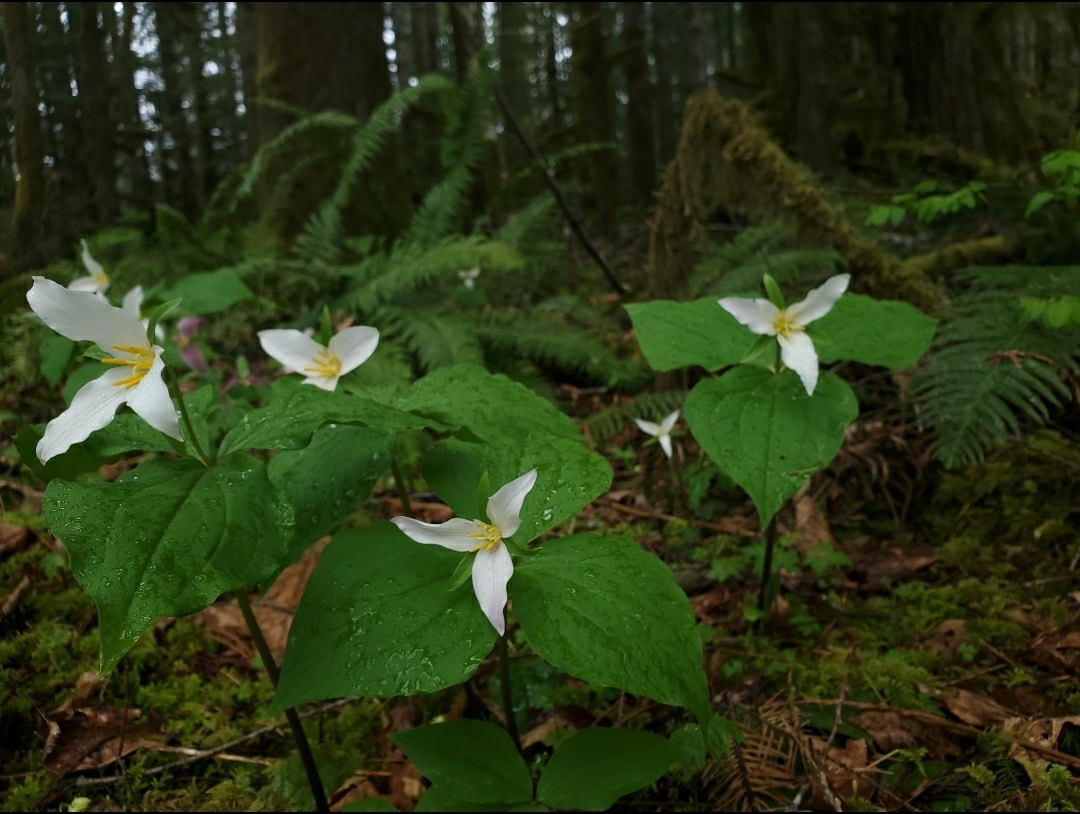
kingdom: Plantae
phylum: Tracheophyta
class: Liliopsida
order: Liliales
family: Melanthiaceae
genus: Trillium
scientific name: Trillium ovatum
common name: Pacific trillium
